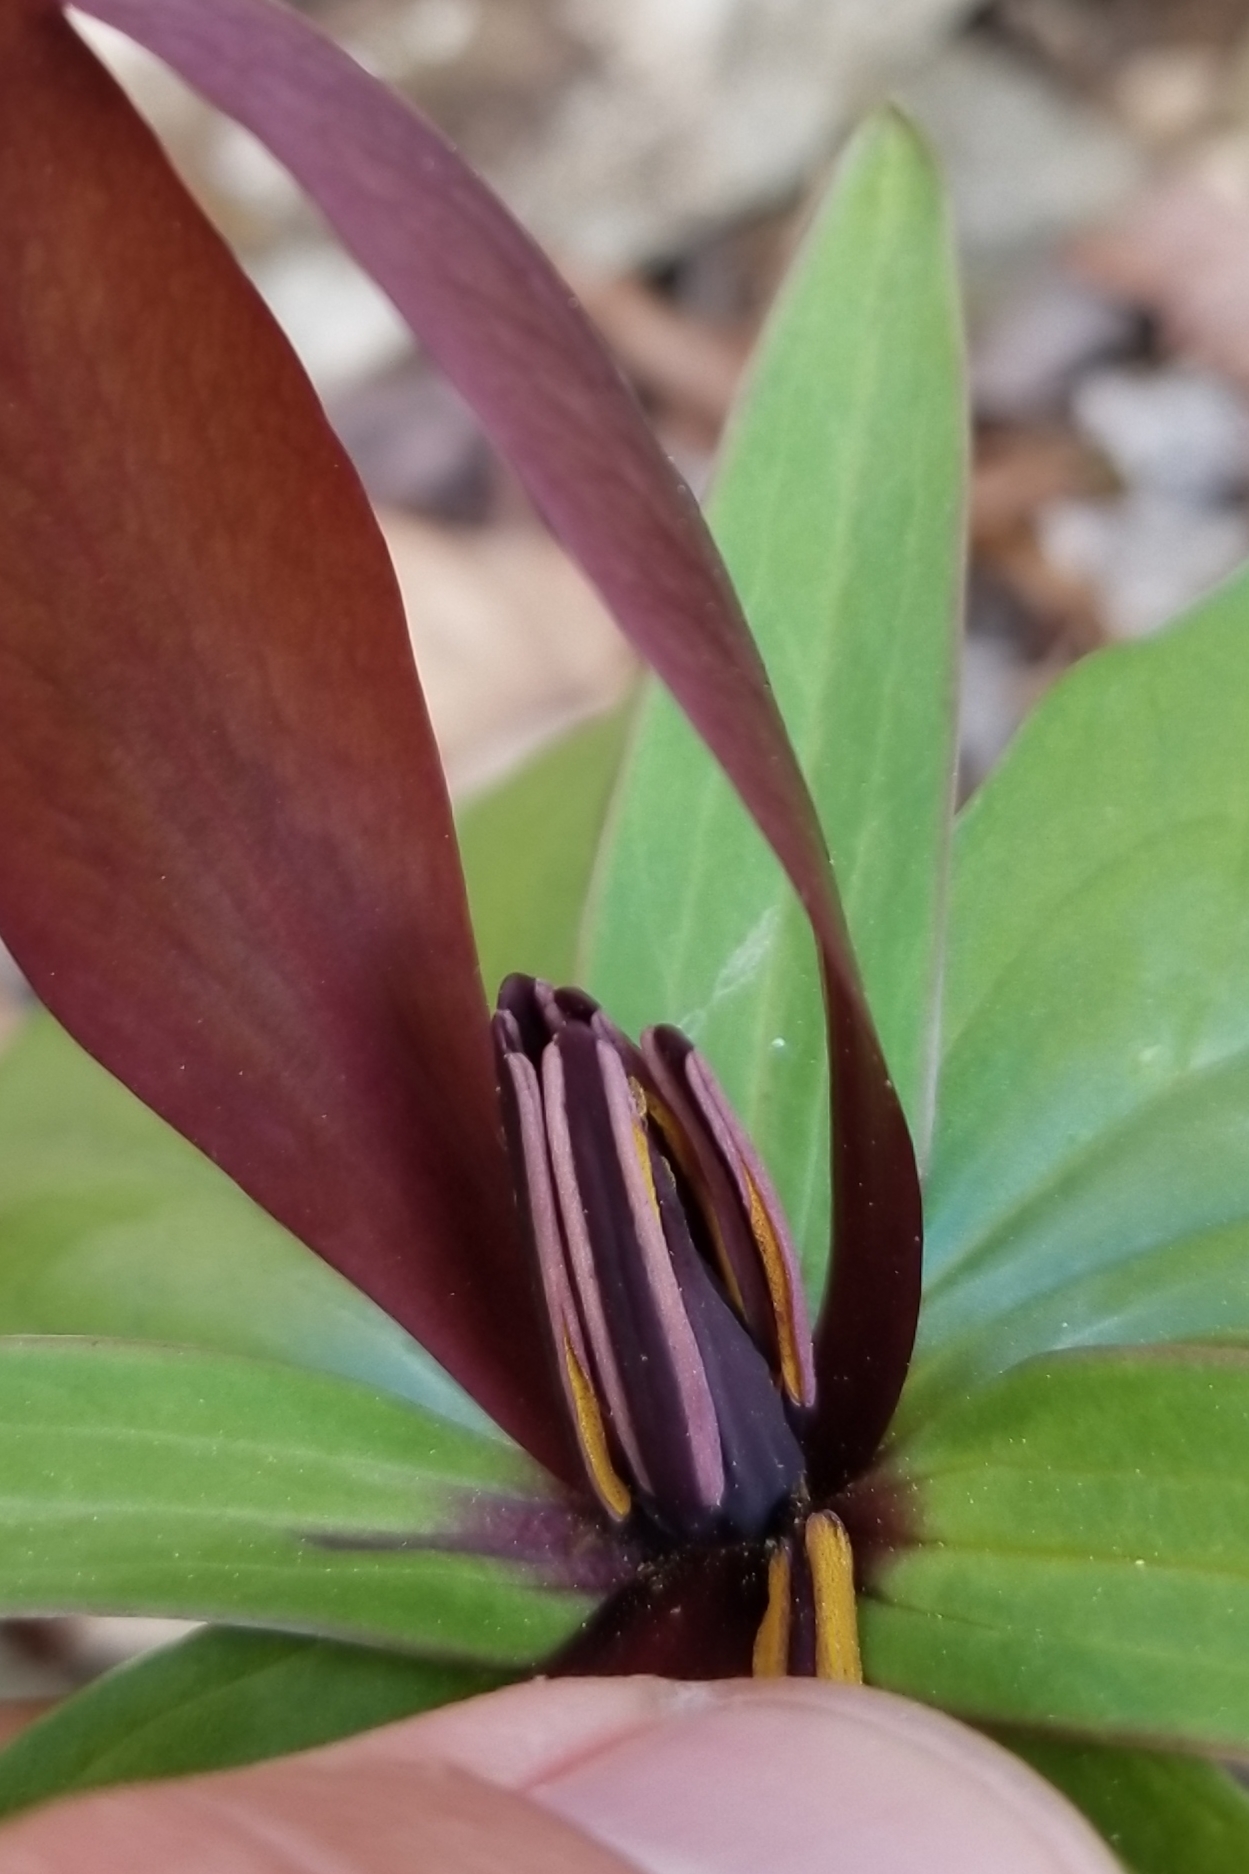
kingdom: Plantae
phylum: Tracheophyta
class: Liliopsida
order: Liliales
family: Melanthiaceae
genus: Trillium
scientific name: Trillium cuneatum
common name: Cuneate trillium
